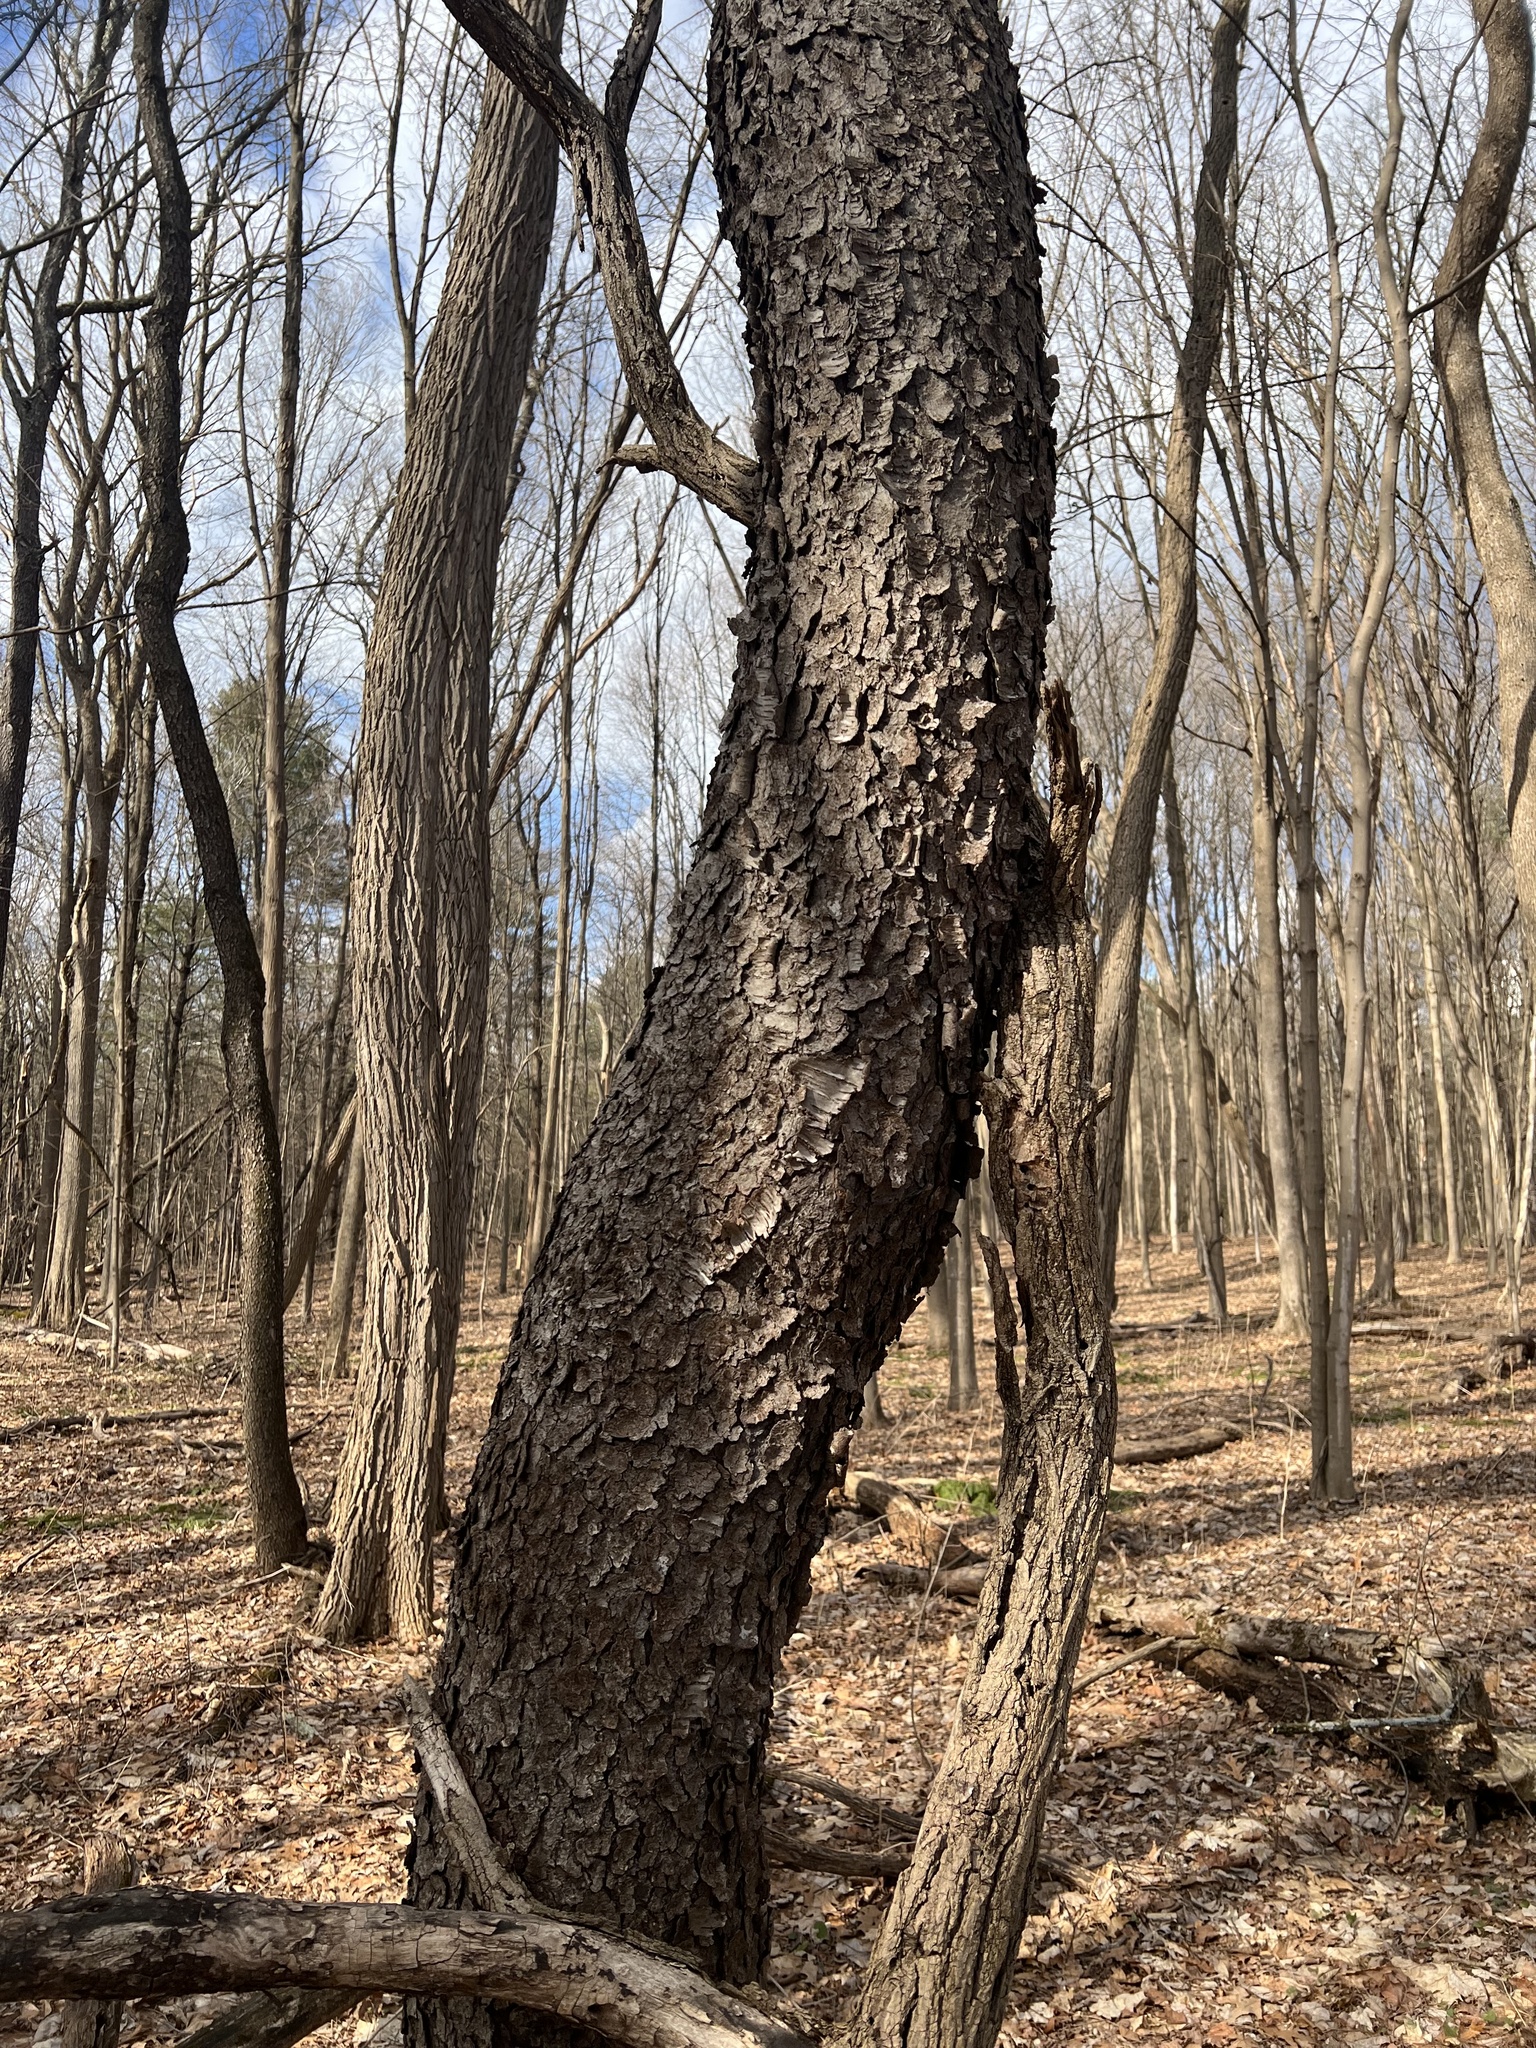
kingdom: Plantae
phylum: Tracheophyta
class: Magnoliopsida
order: Rosales
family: Rosaceae
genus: Prunus
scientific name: Prunus serotina
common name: Black cherry
